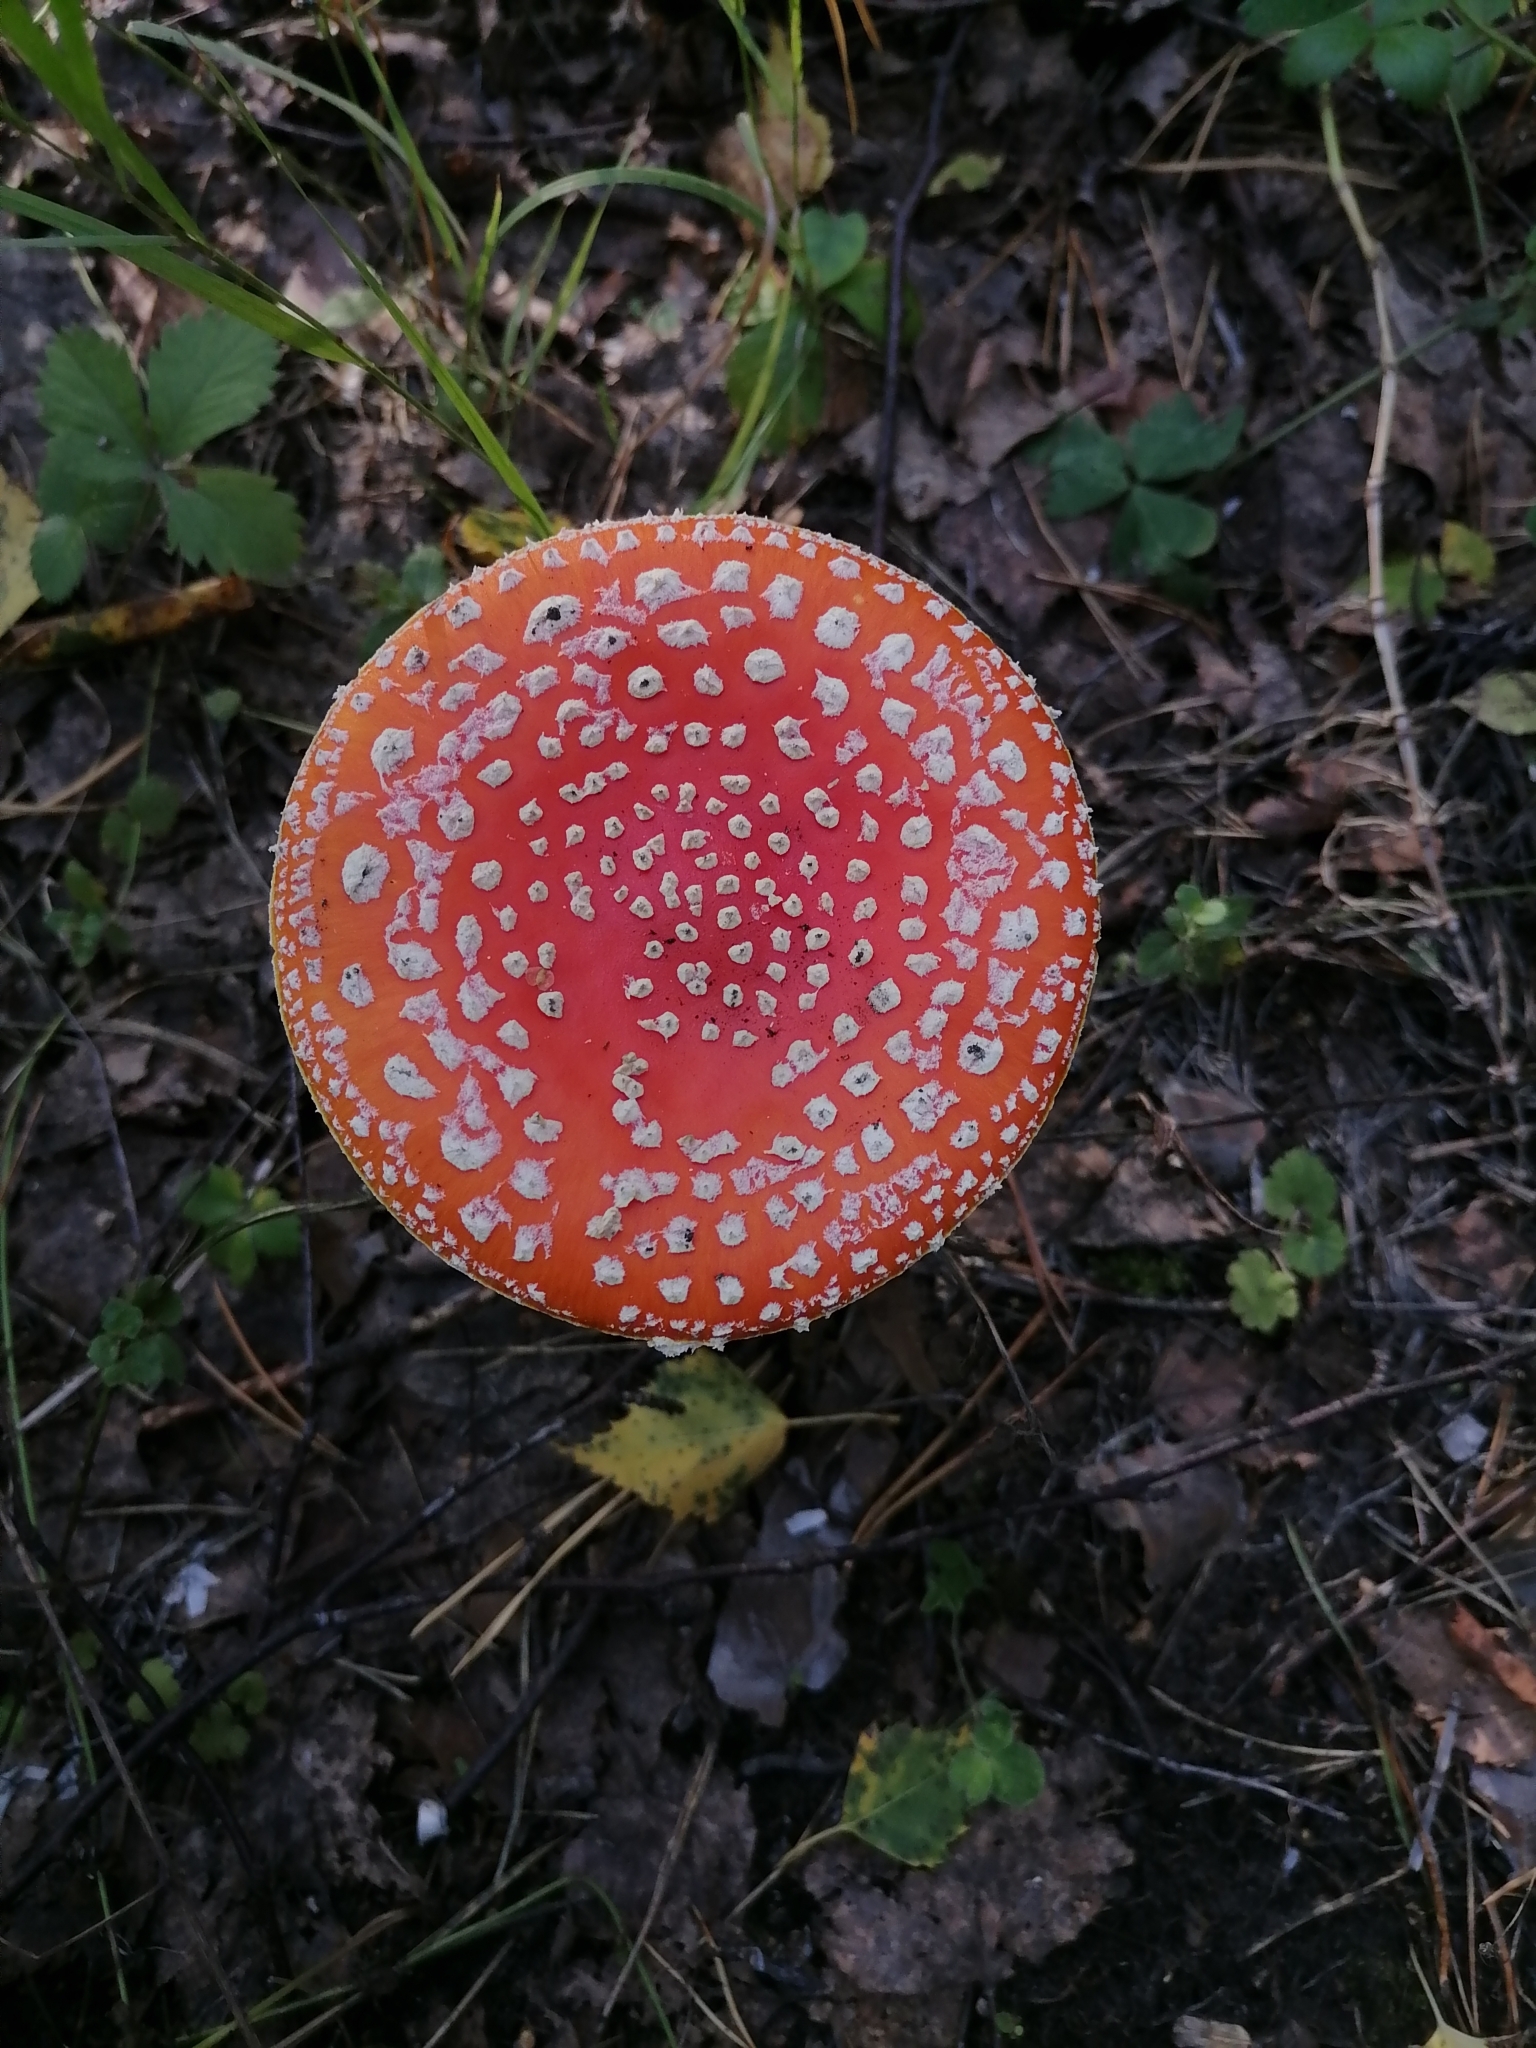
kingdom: Fungi
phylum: Basidiomycota
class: Agaricomycetes
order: Agaricales
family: Amanitaceae
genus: Amanita
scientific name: Amanita muscaria
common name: Fly agaric
